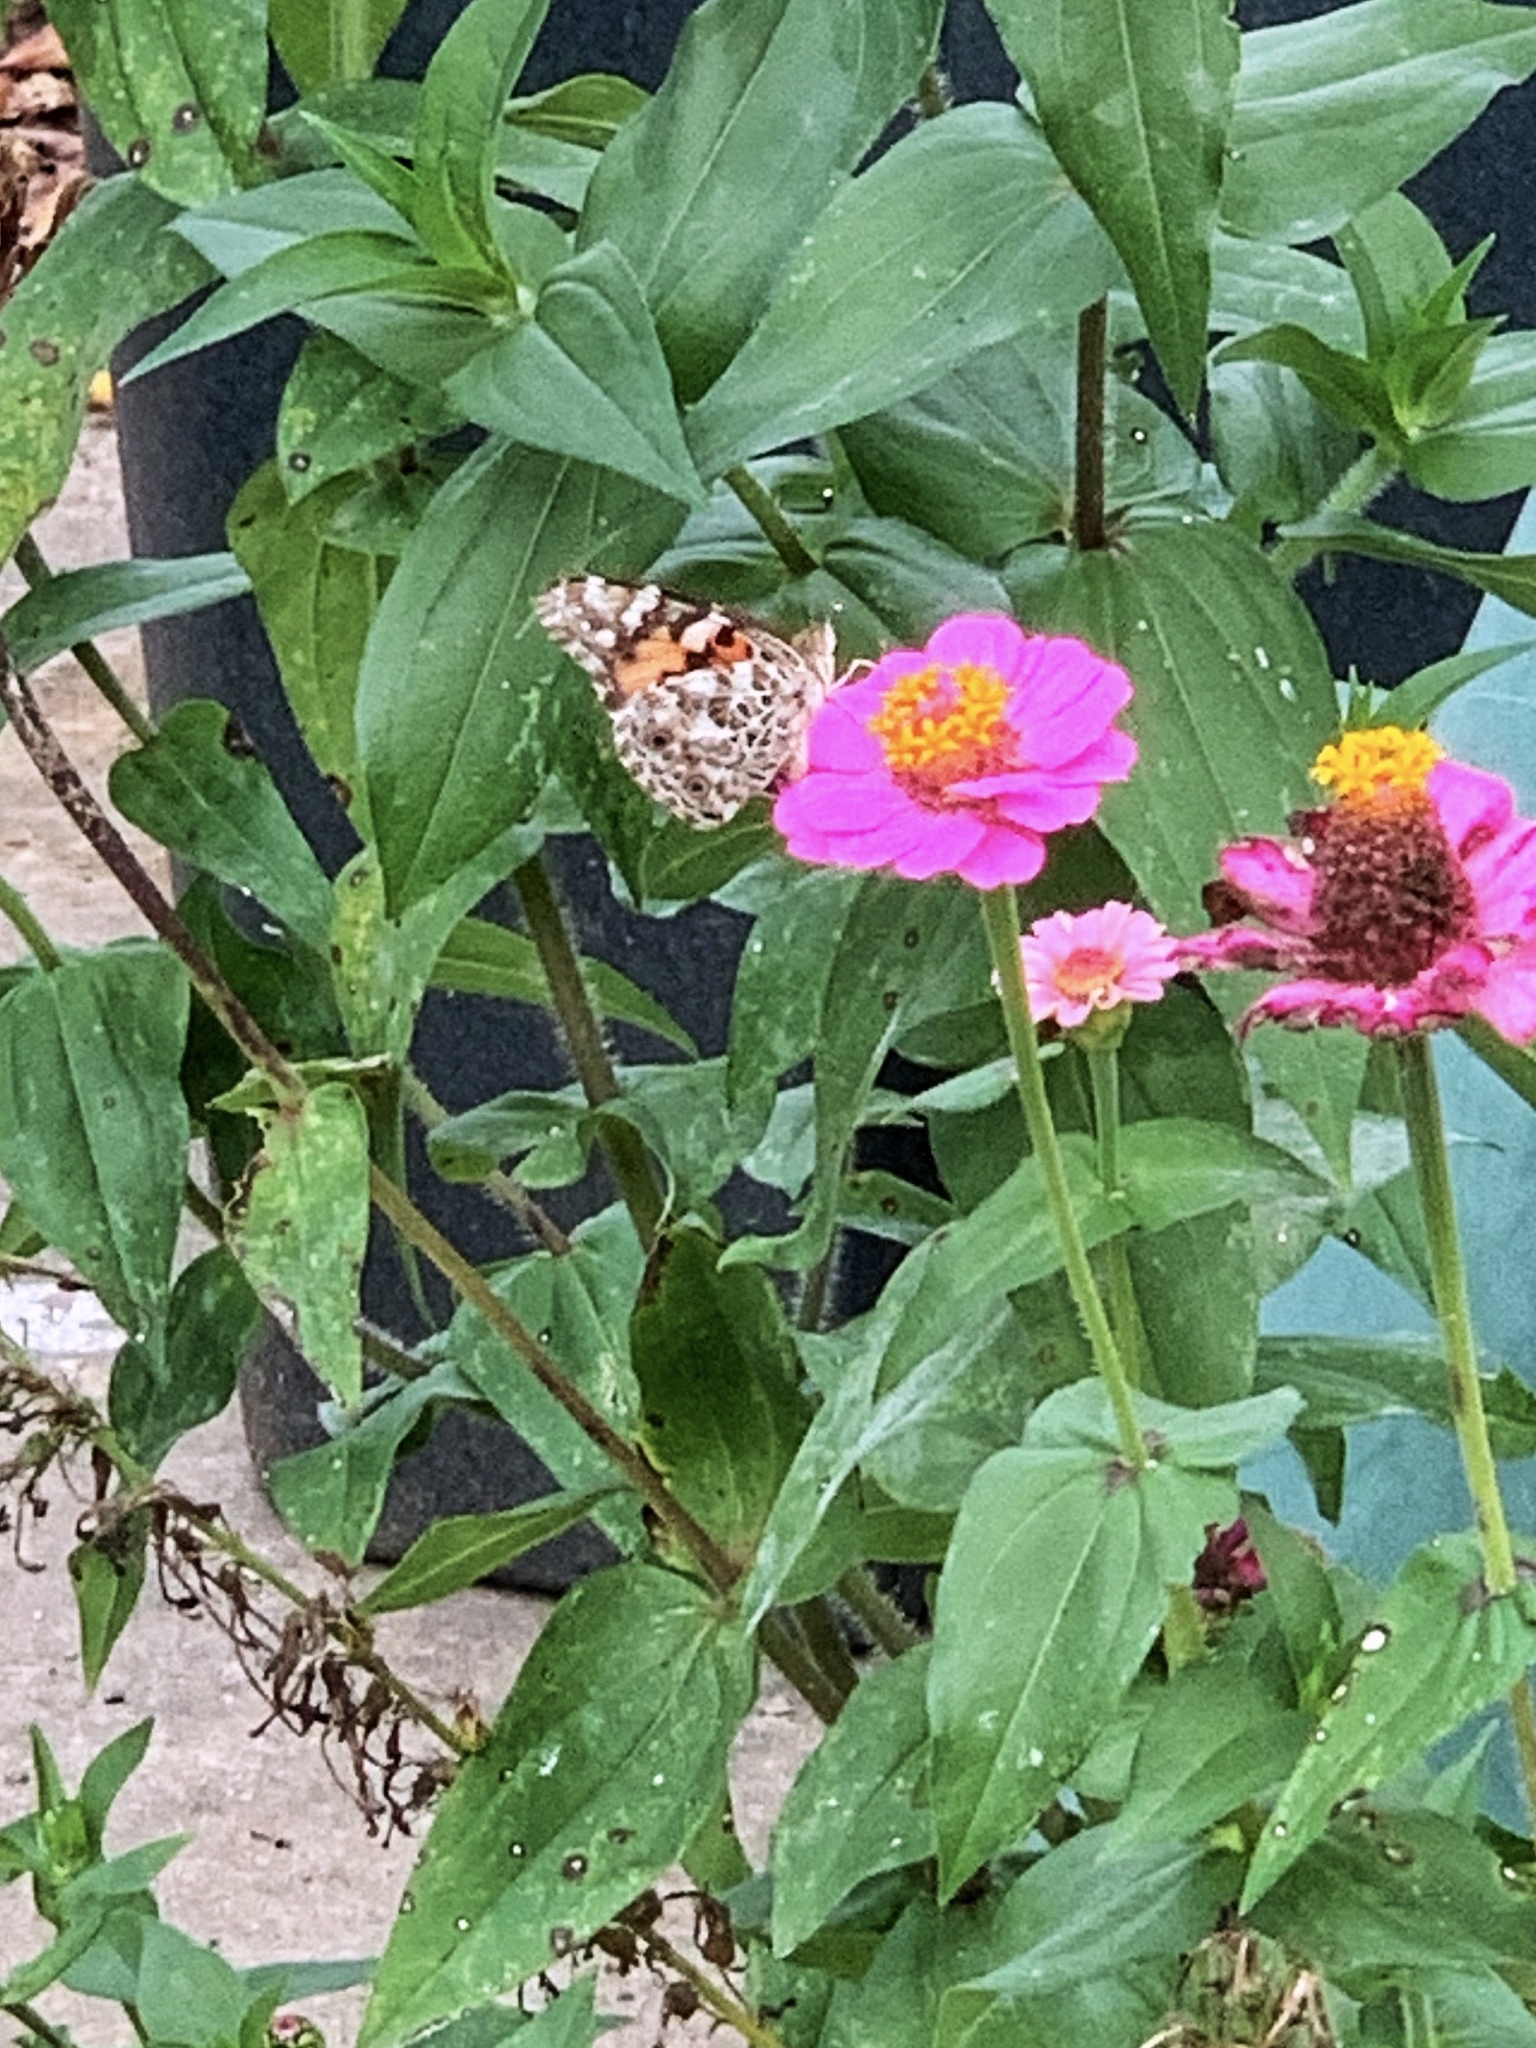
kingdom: Animalia
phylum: Arthropoda
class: Insecta
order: Lepidoptera
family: Nymphalidae
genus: Vanessa
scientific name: Vanessa cardui
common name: Painted lady
